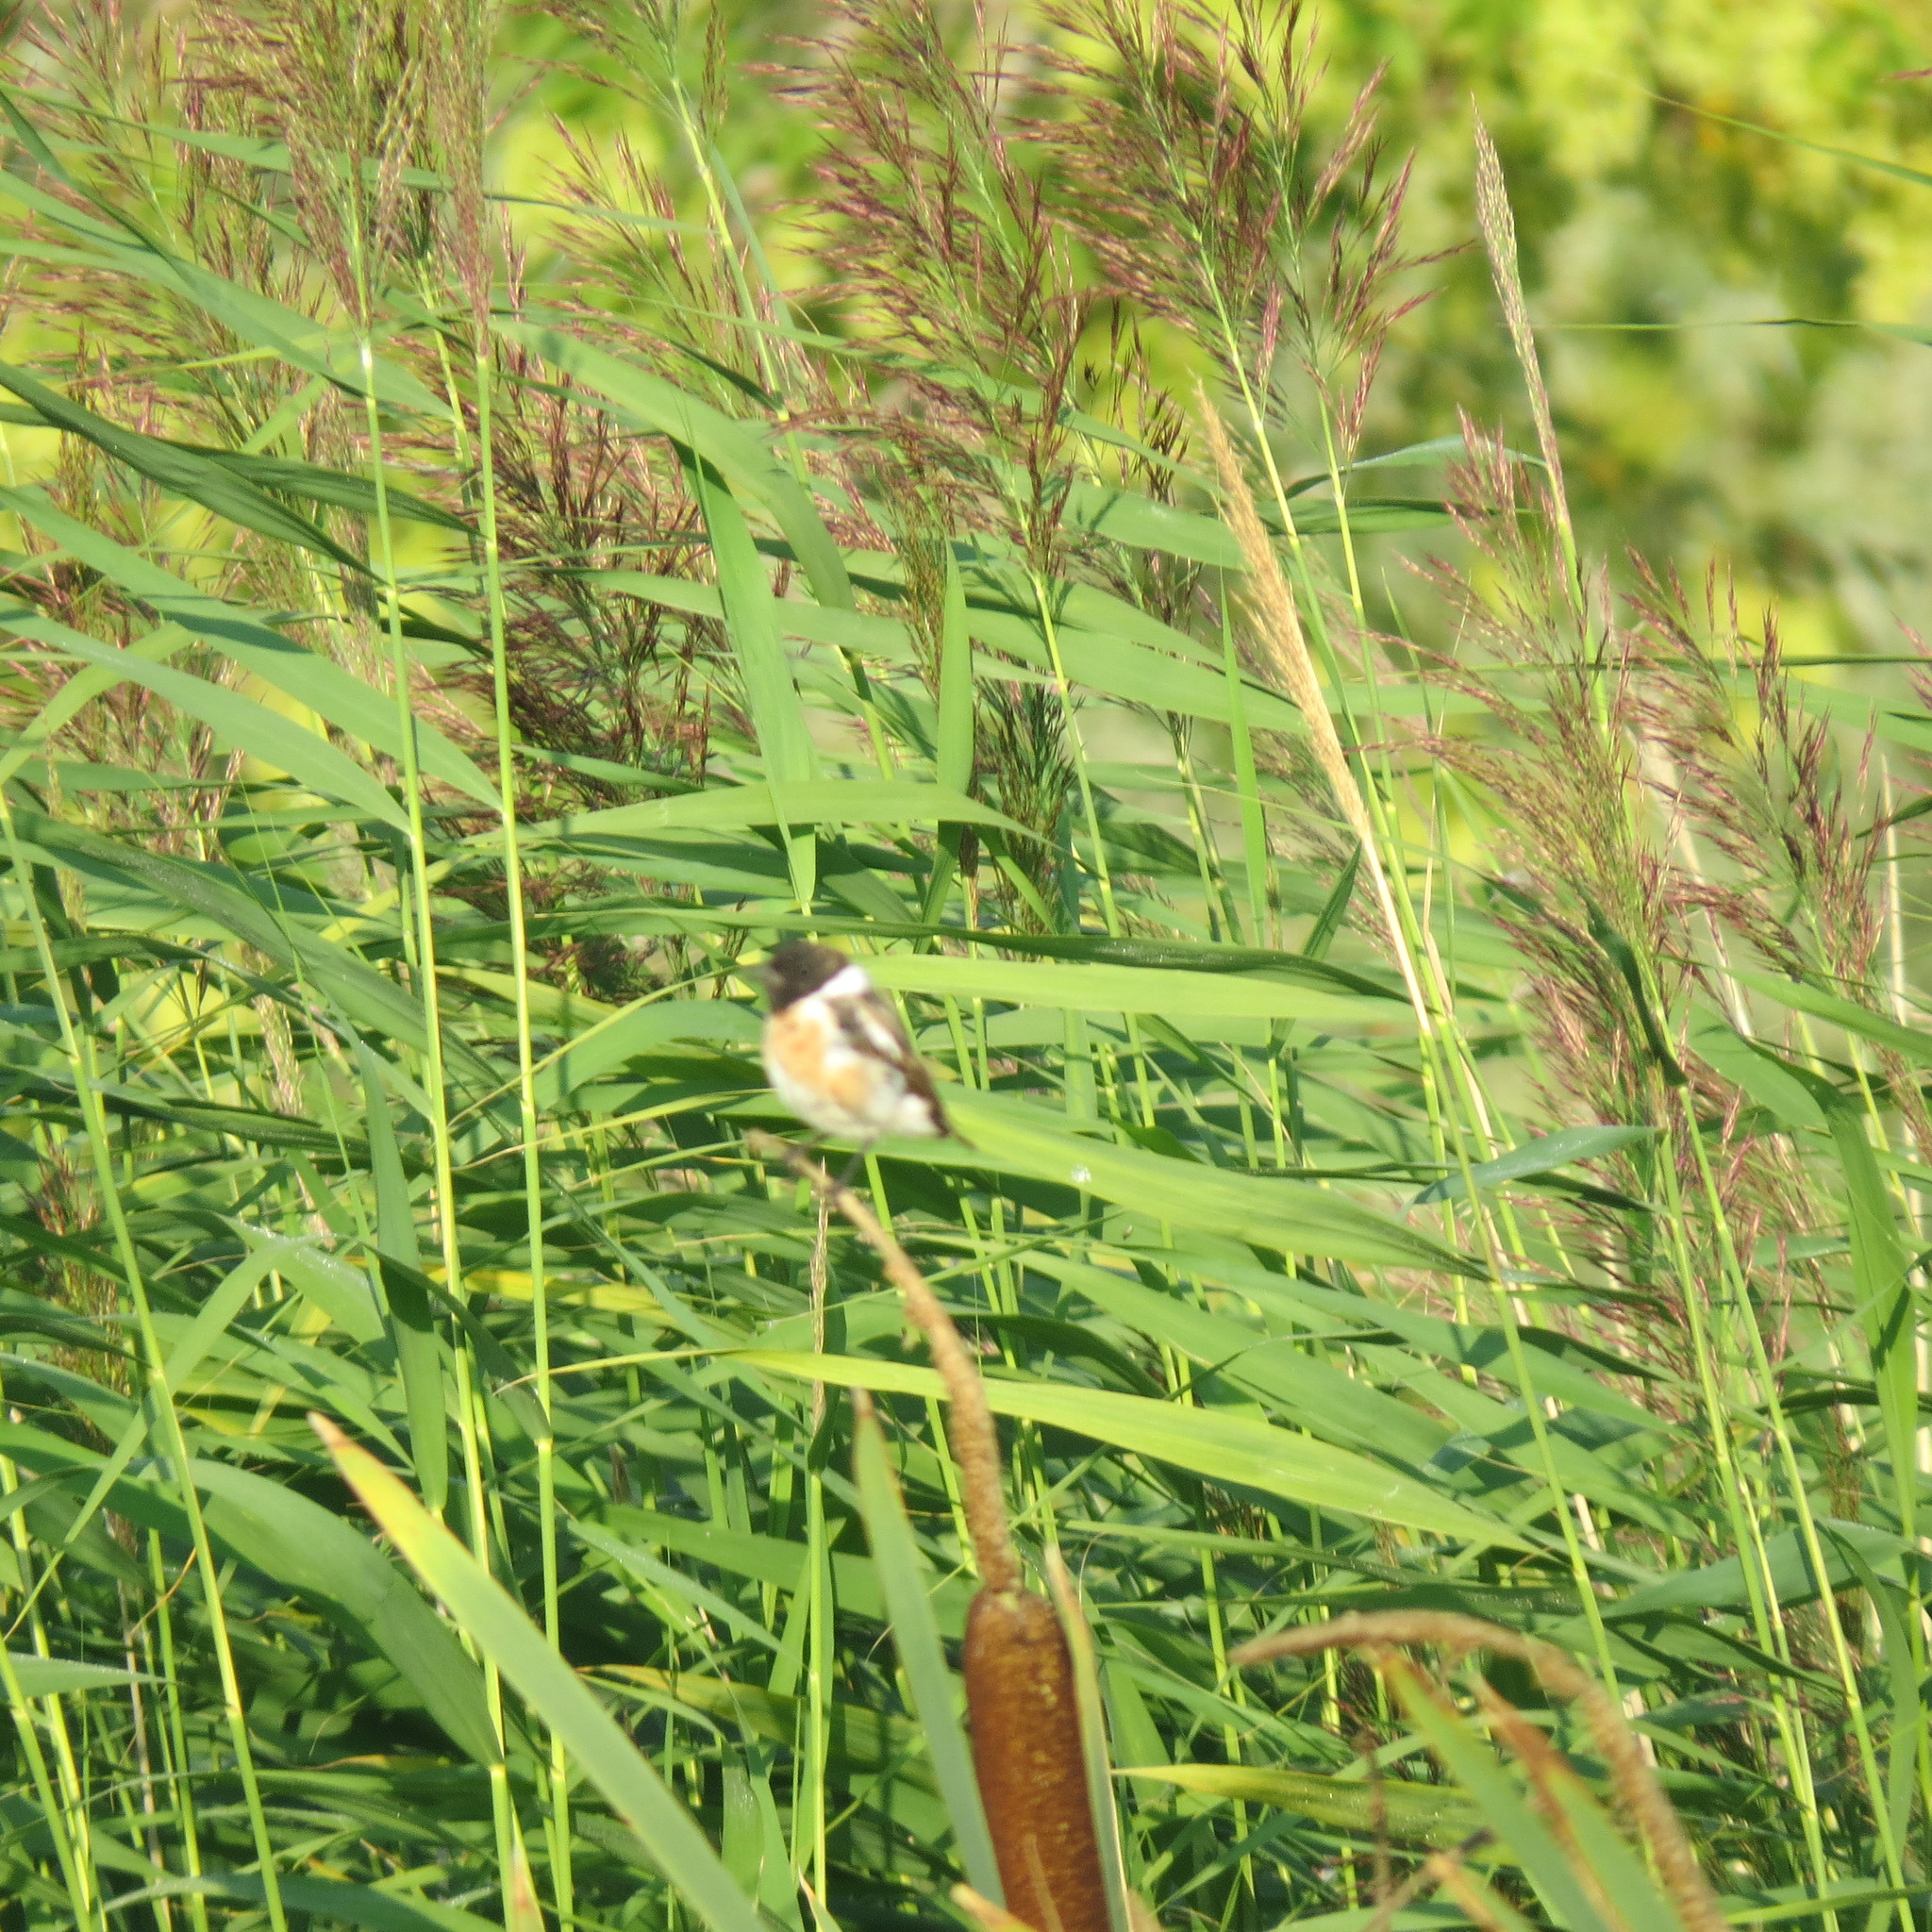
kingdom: Animalia
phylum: Chordata
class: Aves
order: Passeriformes
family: Muscicapidae
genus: Saxicola
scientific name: Saxicola maurus
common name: Siberian stonechat
